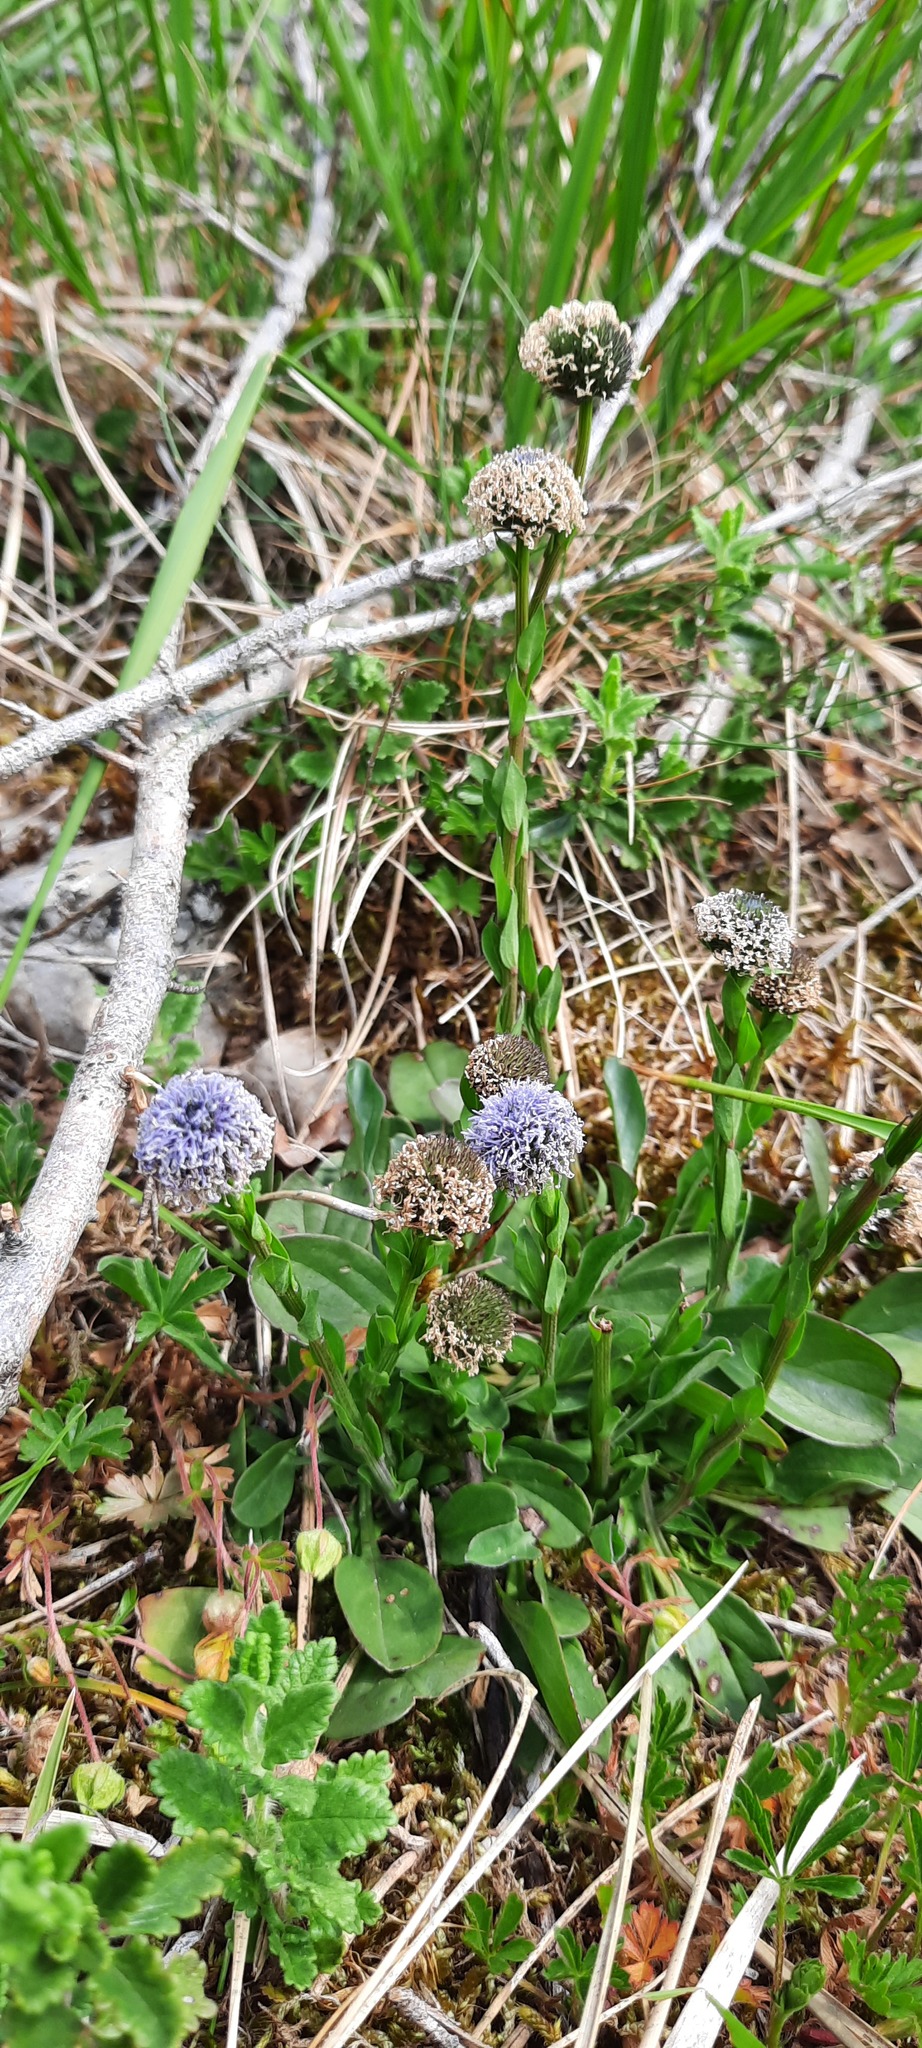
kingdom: Plantae
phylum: Tracheophyta
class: Magnoliopsida
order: Lamiales
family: Plantaginaceae
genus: Globularia
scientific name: Globularia bisnagarica
